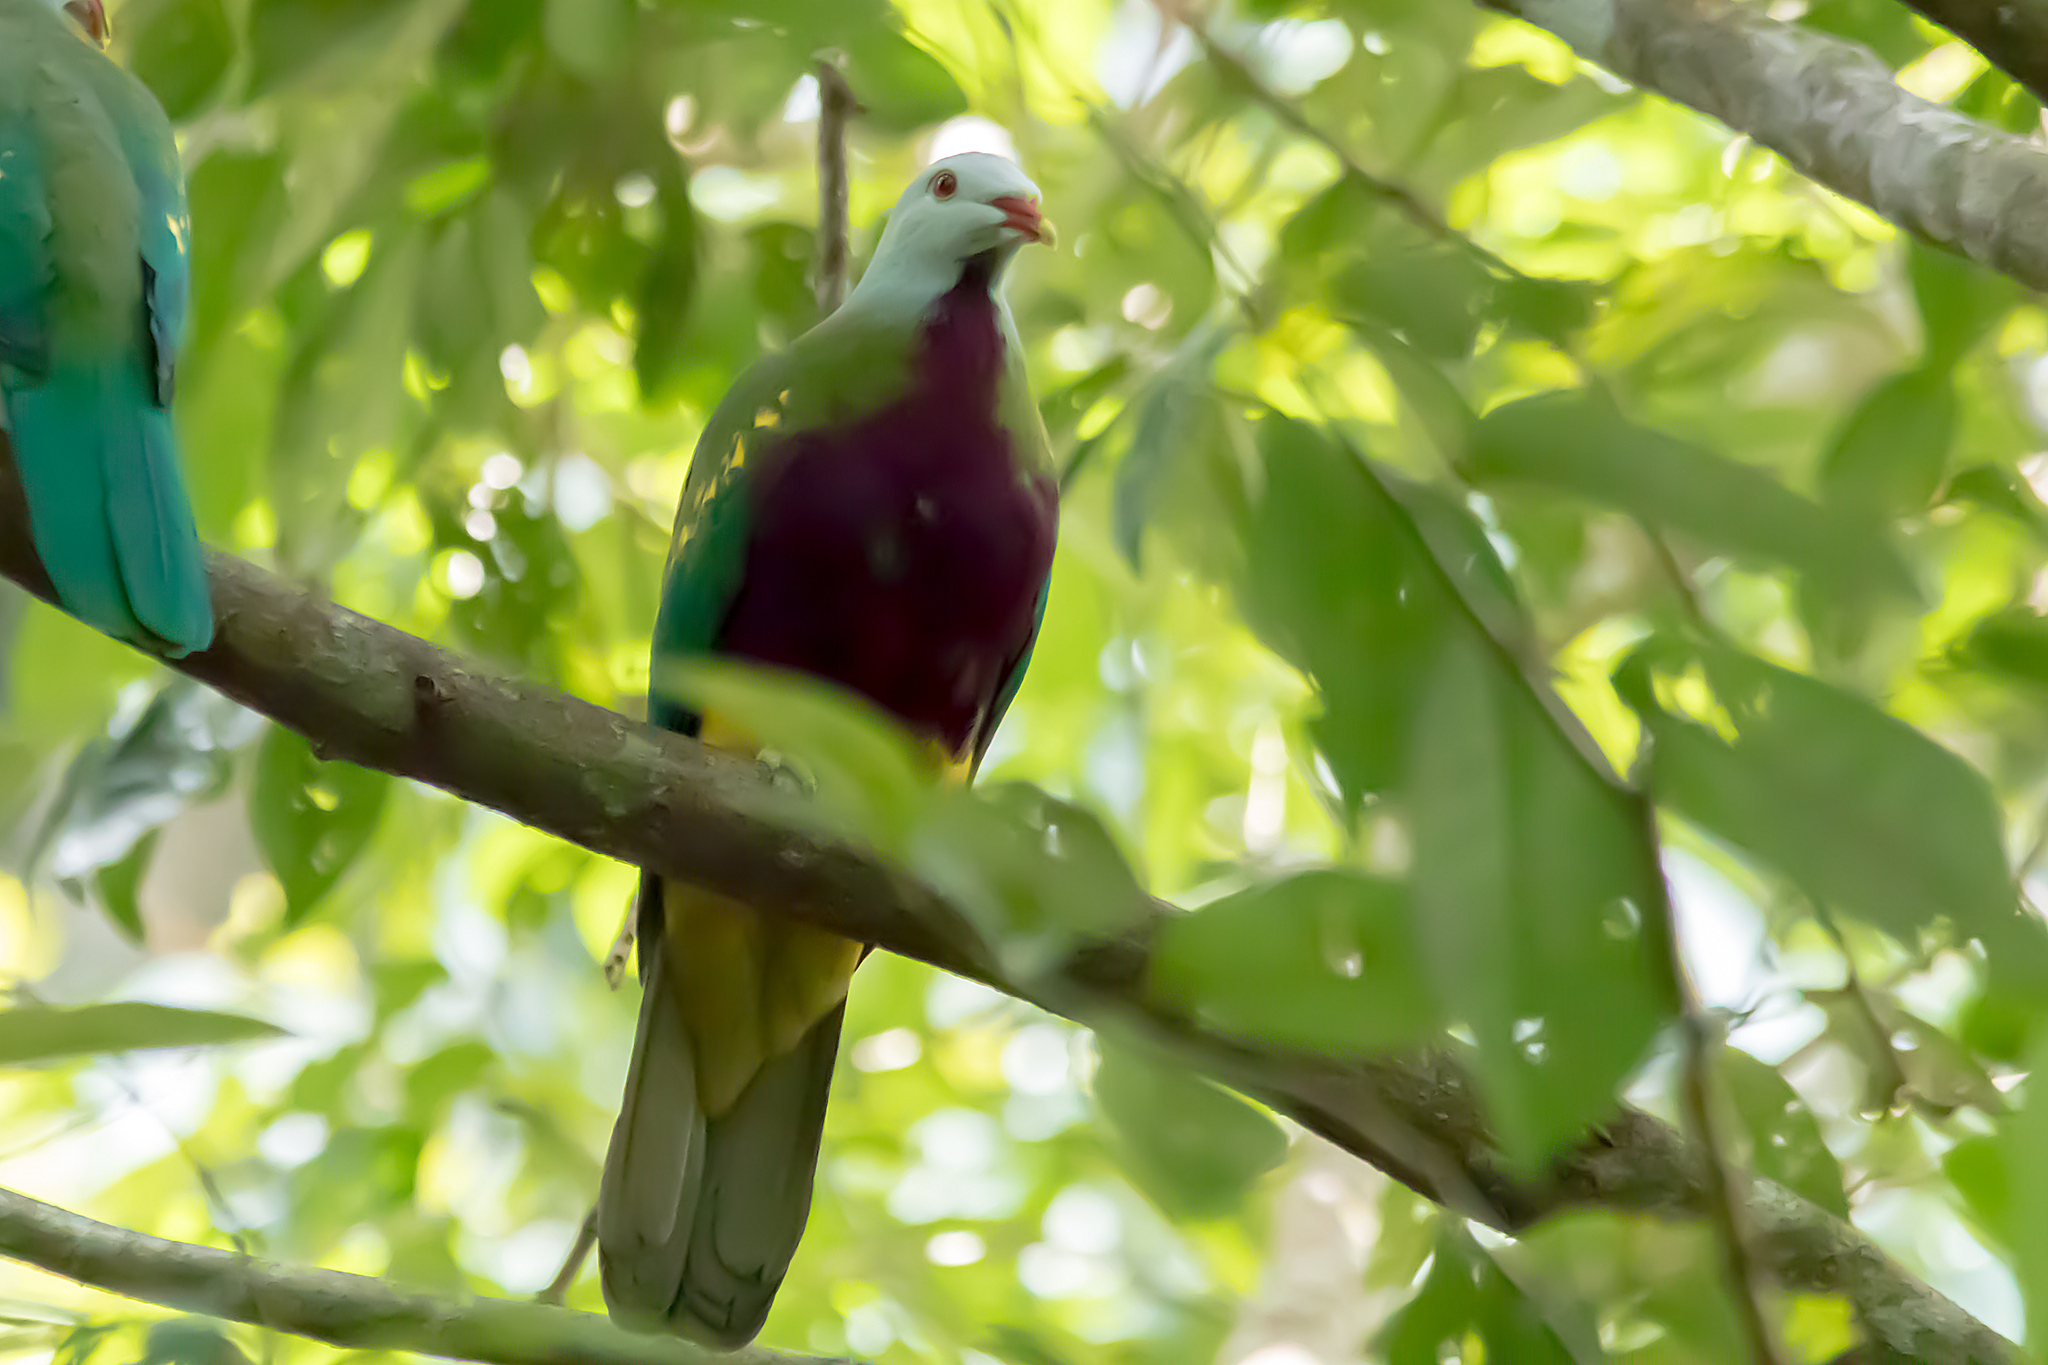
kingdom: Animalia
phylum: Chordata
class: Aves
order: Columbiformes
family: Columbidae
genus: Ptilinopus
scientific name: Ptilinopus magnificus
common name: Wompoo fruit dove
